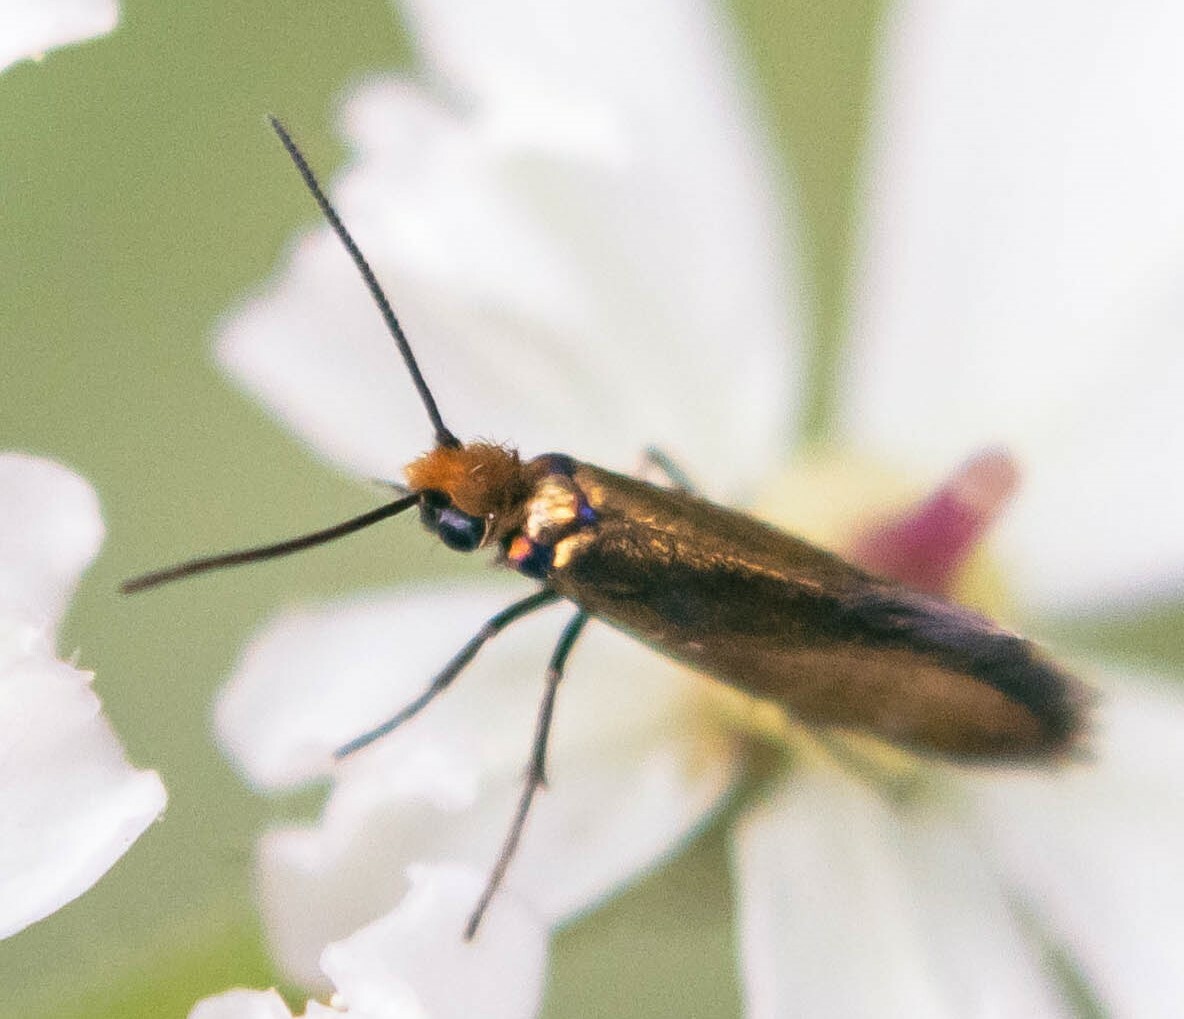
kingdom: Animalia
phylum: Arthropoda
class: Insecta
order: Lepidoptera
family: Micropterigidae
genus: Micropterix
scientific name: Micropterix calthella
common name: Plain gold
